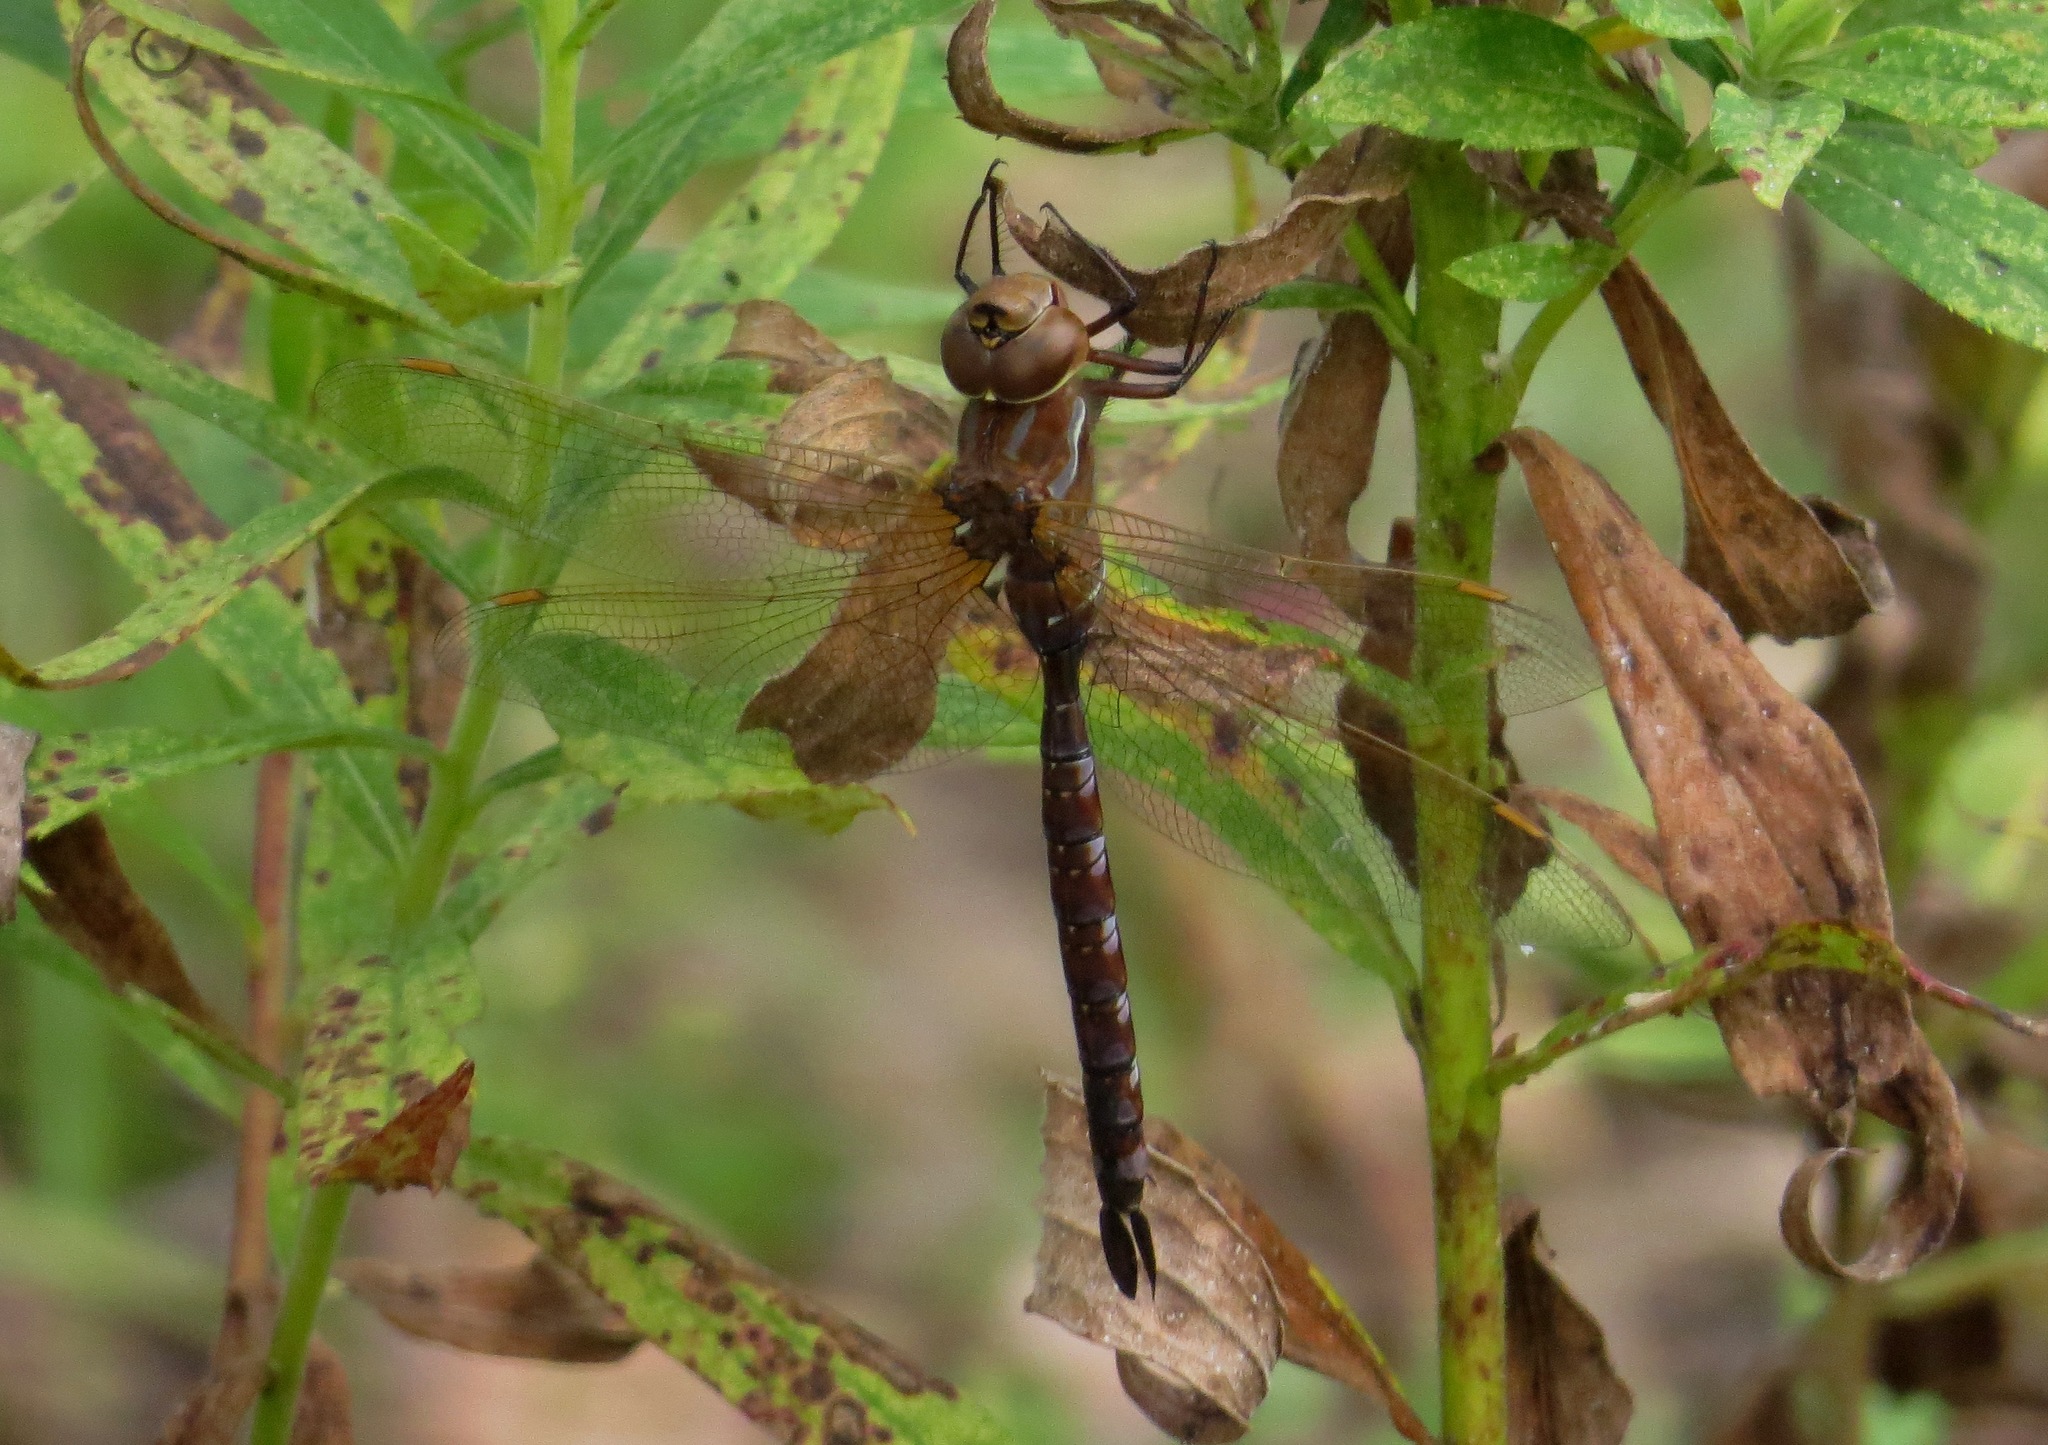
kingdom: Animalia
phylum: Arthropoda
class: Insecta
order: Odonata
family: Aeshnidae
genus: Aeshna
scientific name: Aeshna constricta
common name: Lance-tipped darner
